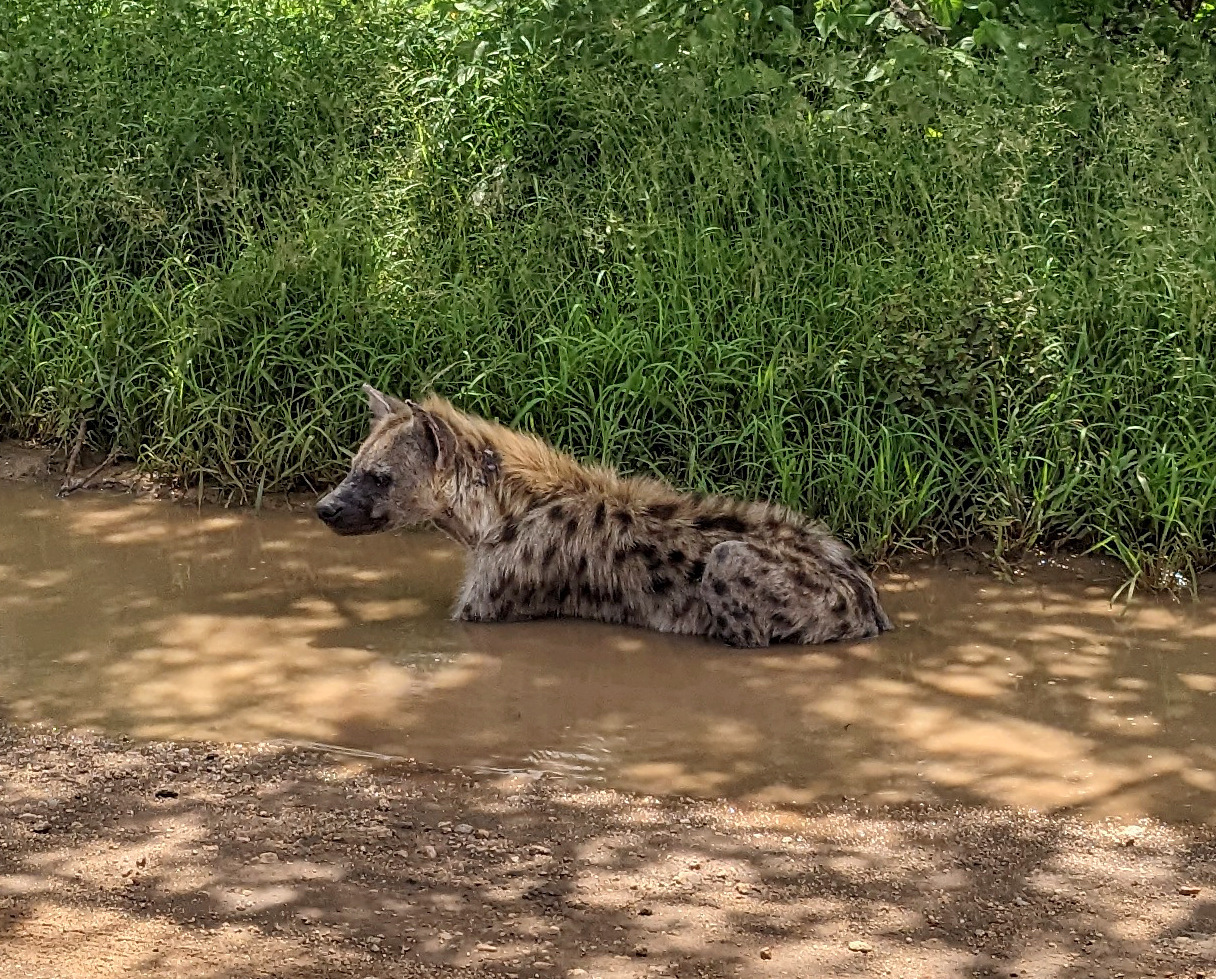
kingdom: Animalia
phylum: Chordata
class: Mammalia
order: Carnivora
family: Hyaenidae
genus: Crocuta
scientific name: Crocuta crocuta
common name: Spotted hyaena
